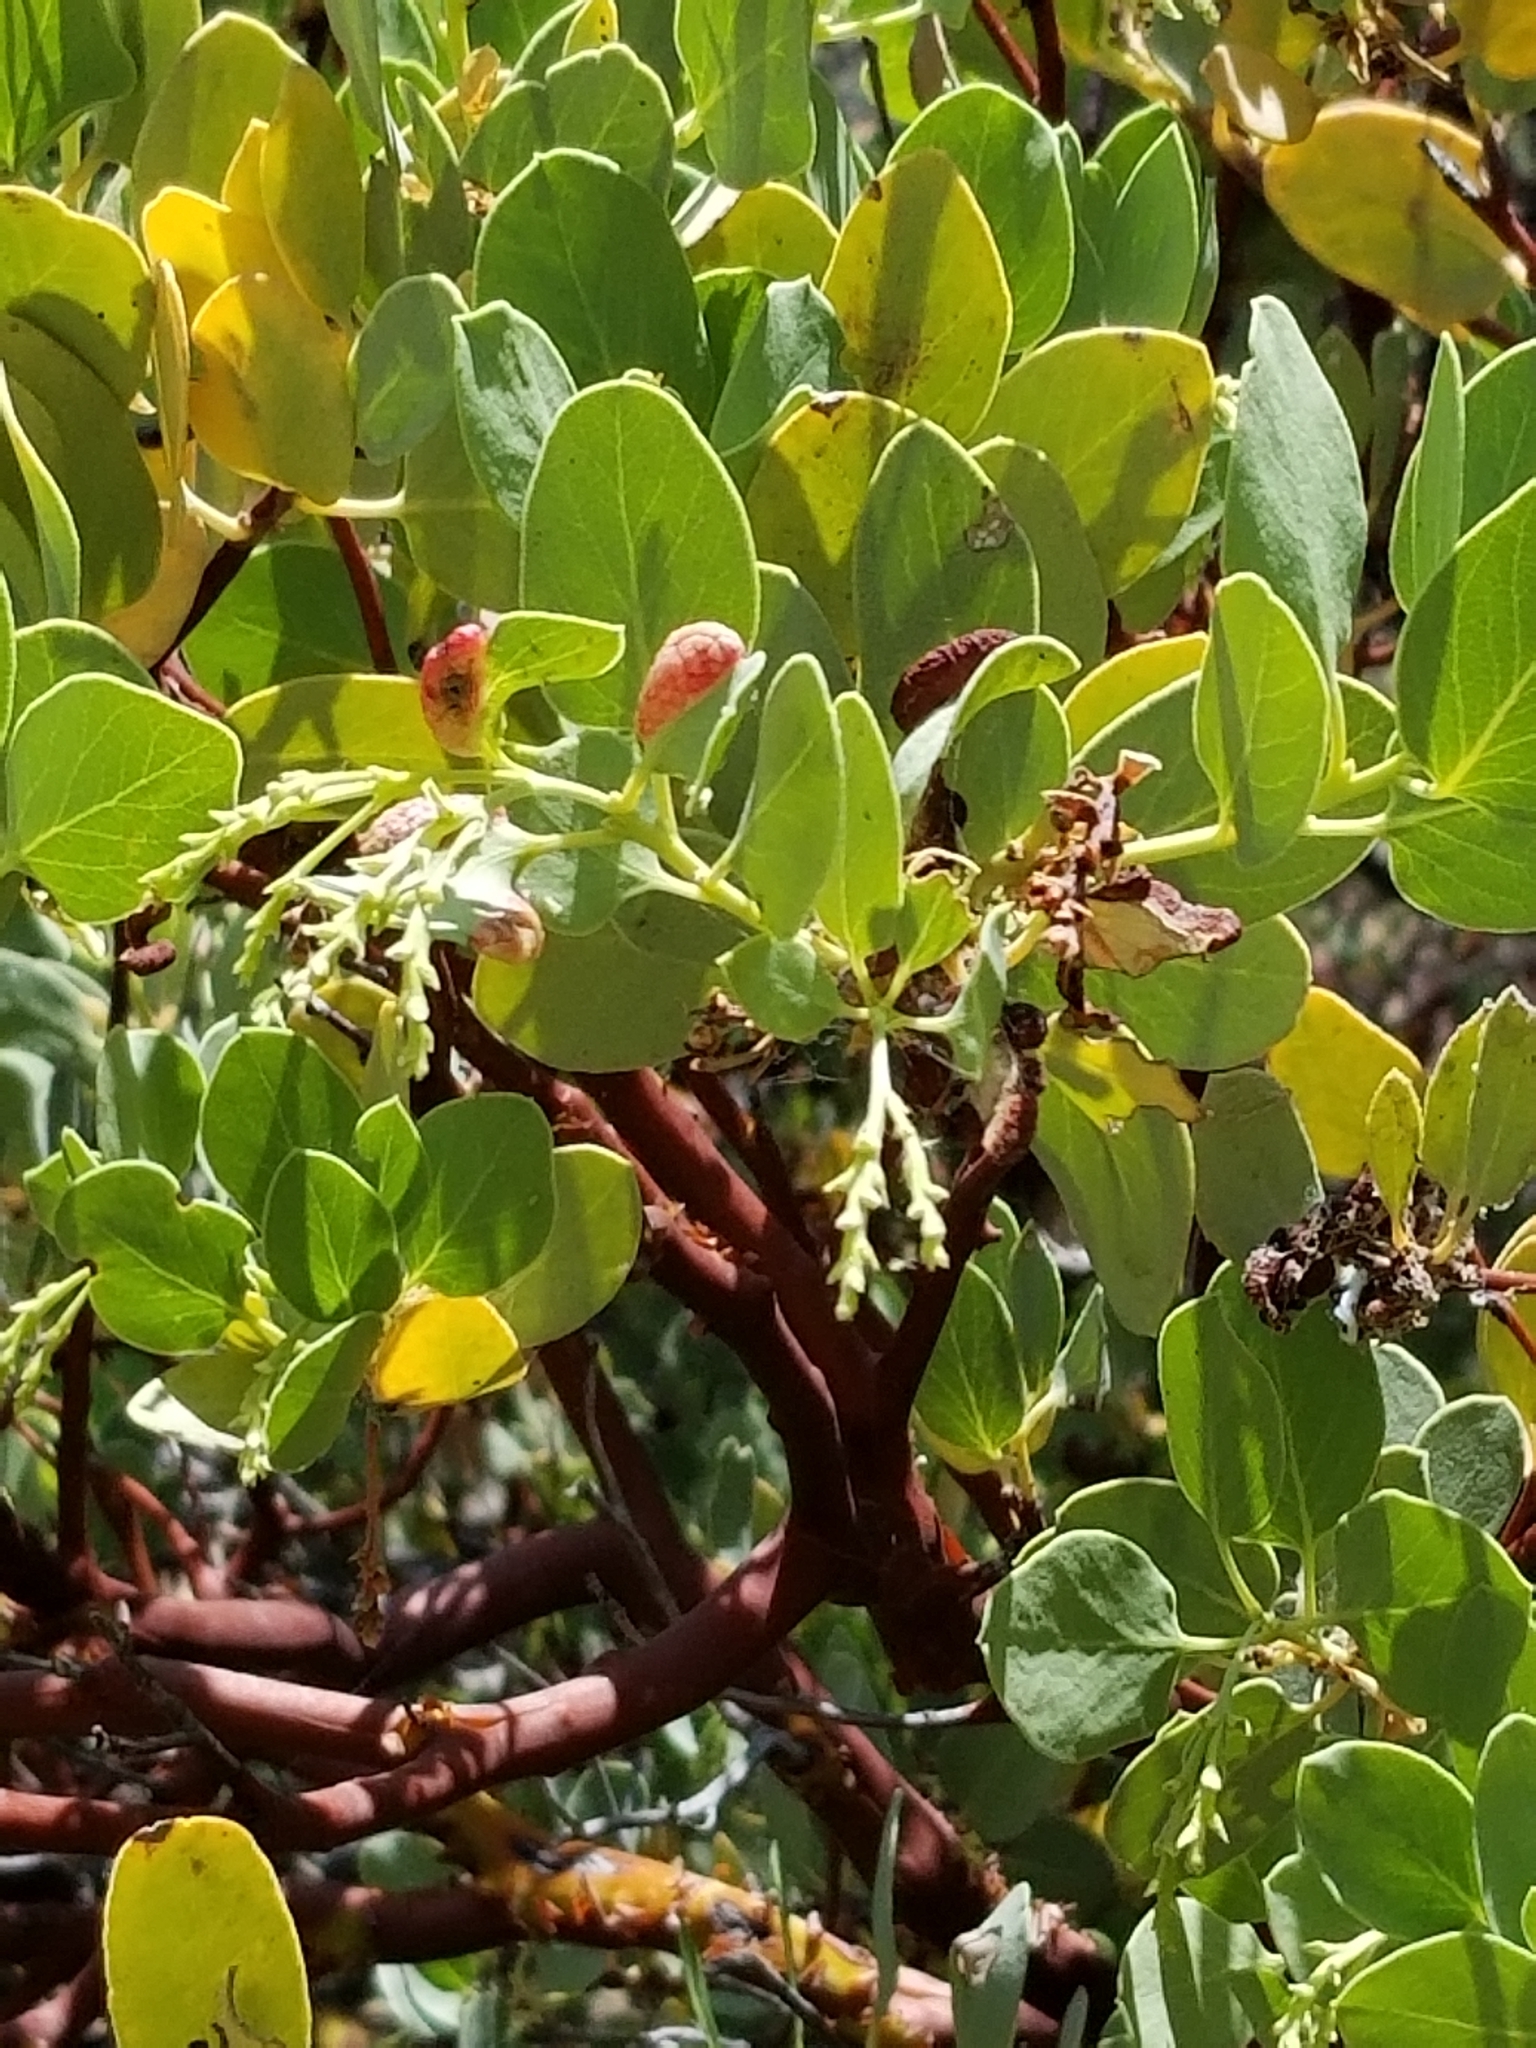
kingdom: Plantae
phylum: Tracheophyta
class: Magnoliopsida
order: Ericales
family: Ericaceae
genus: Arctostaphylos
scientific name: Arctostaphylos glauca
